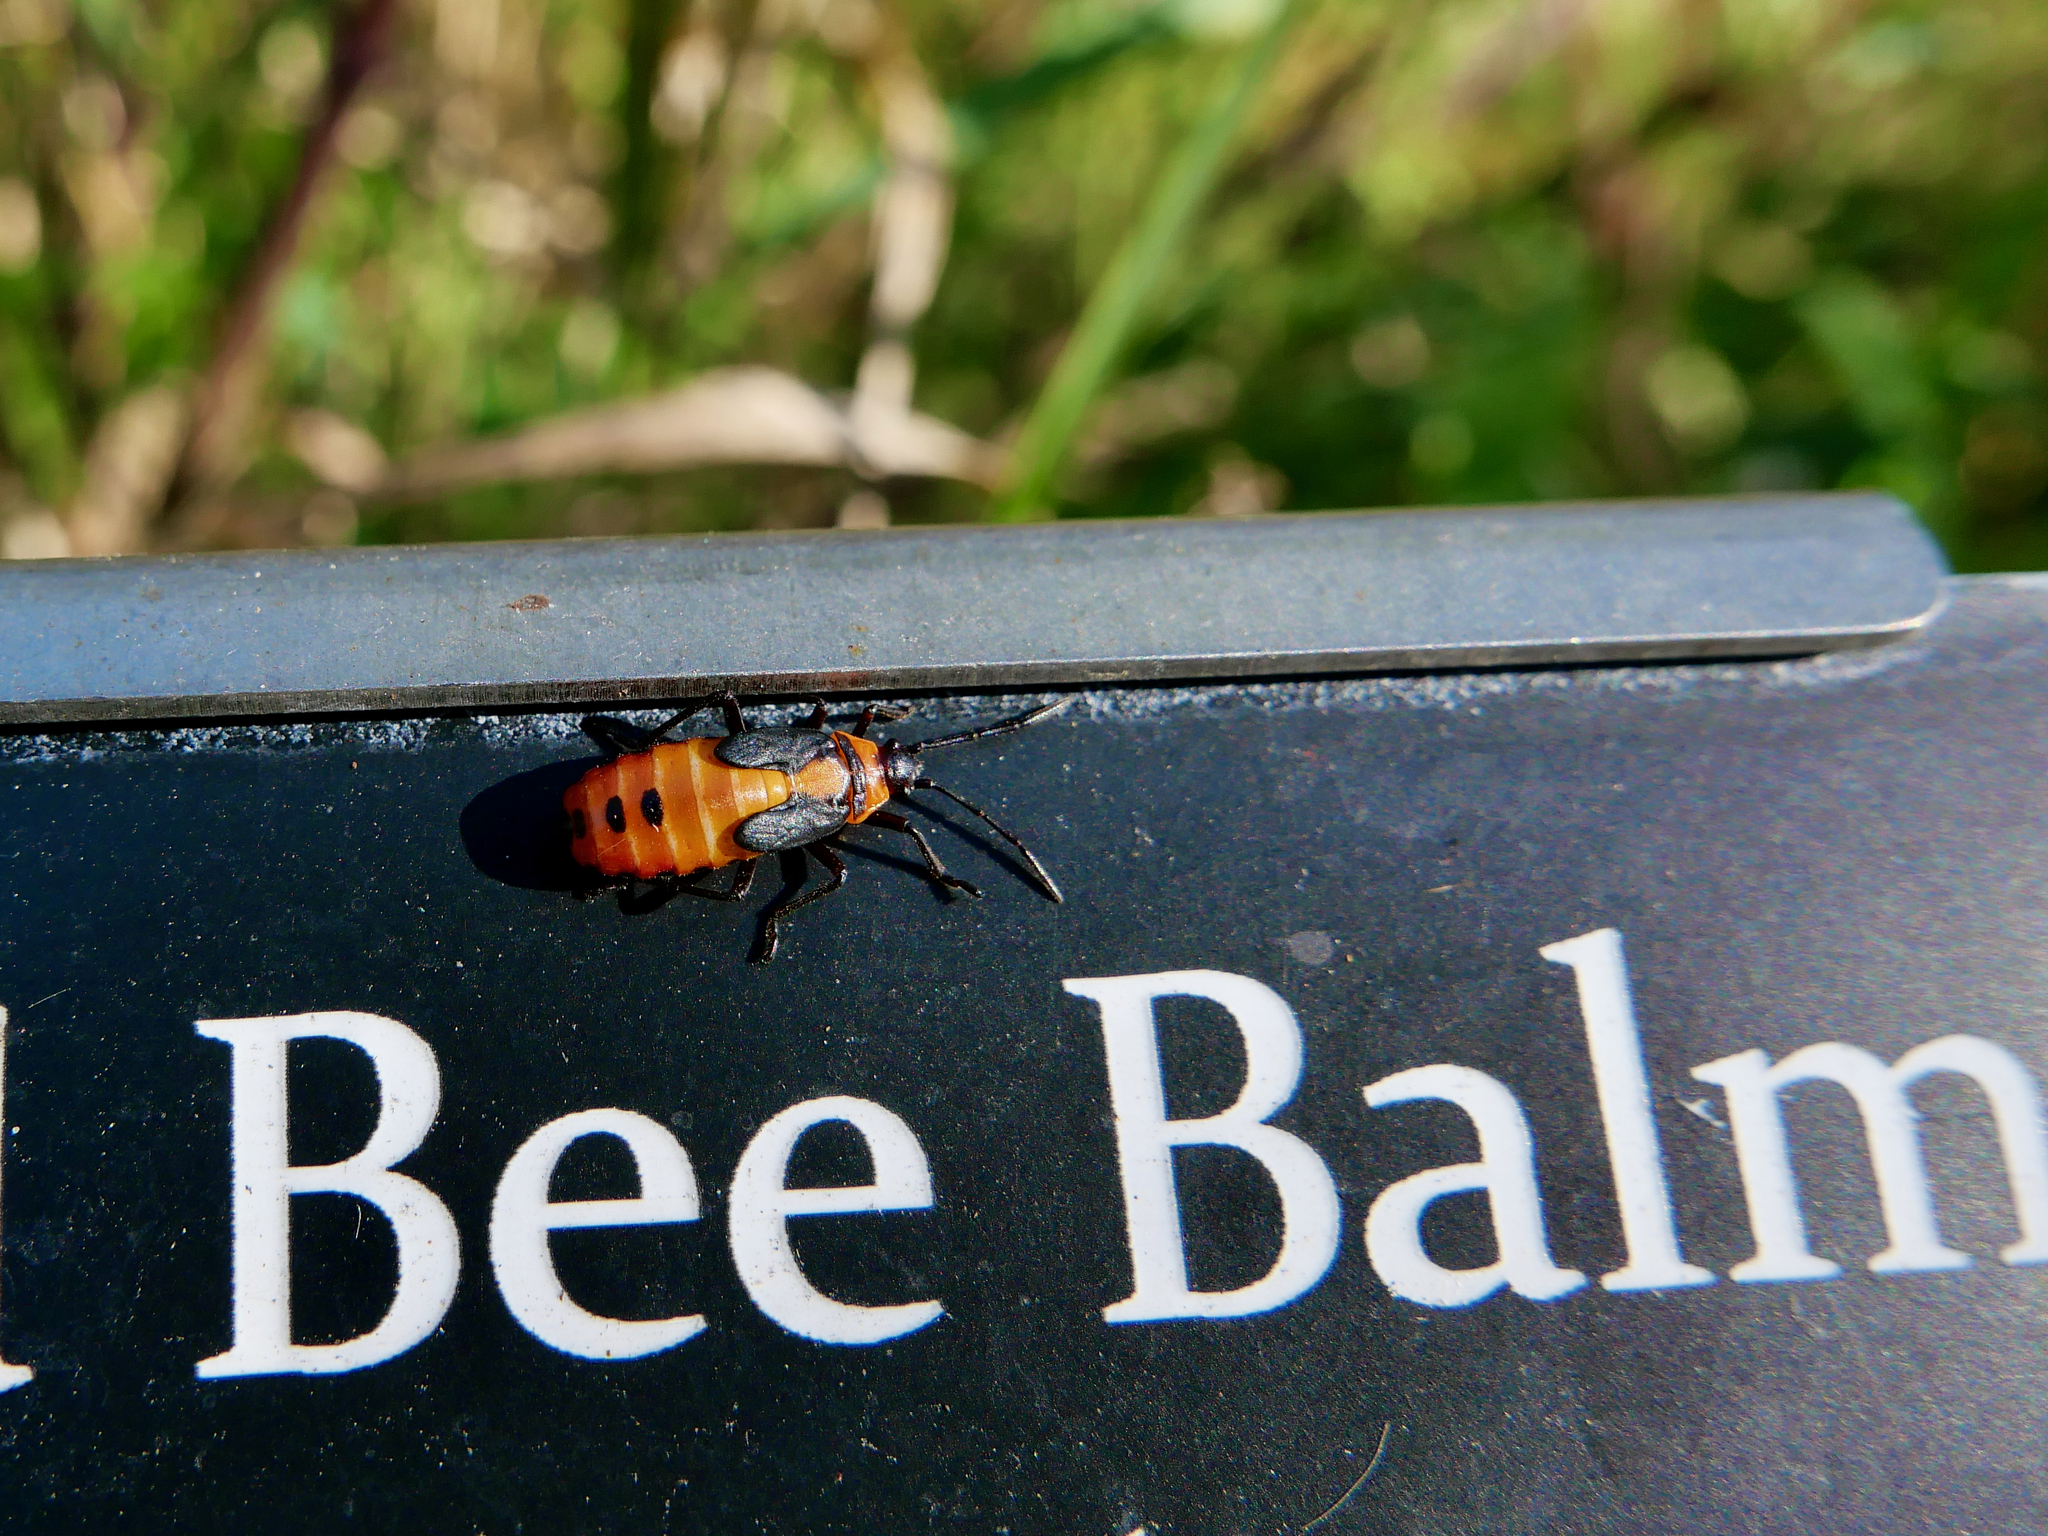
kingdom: Animalia
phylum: Arthropoda
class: Insecta
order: Hemiptera
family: Lygaeidae
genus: Oncopeltus
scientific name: Oncopeltus fasciatus
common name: Large milkweed bug
